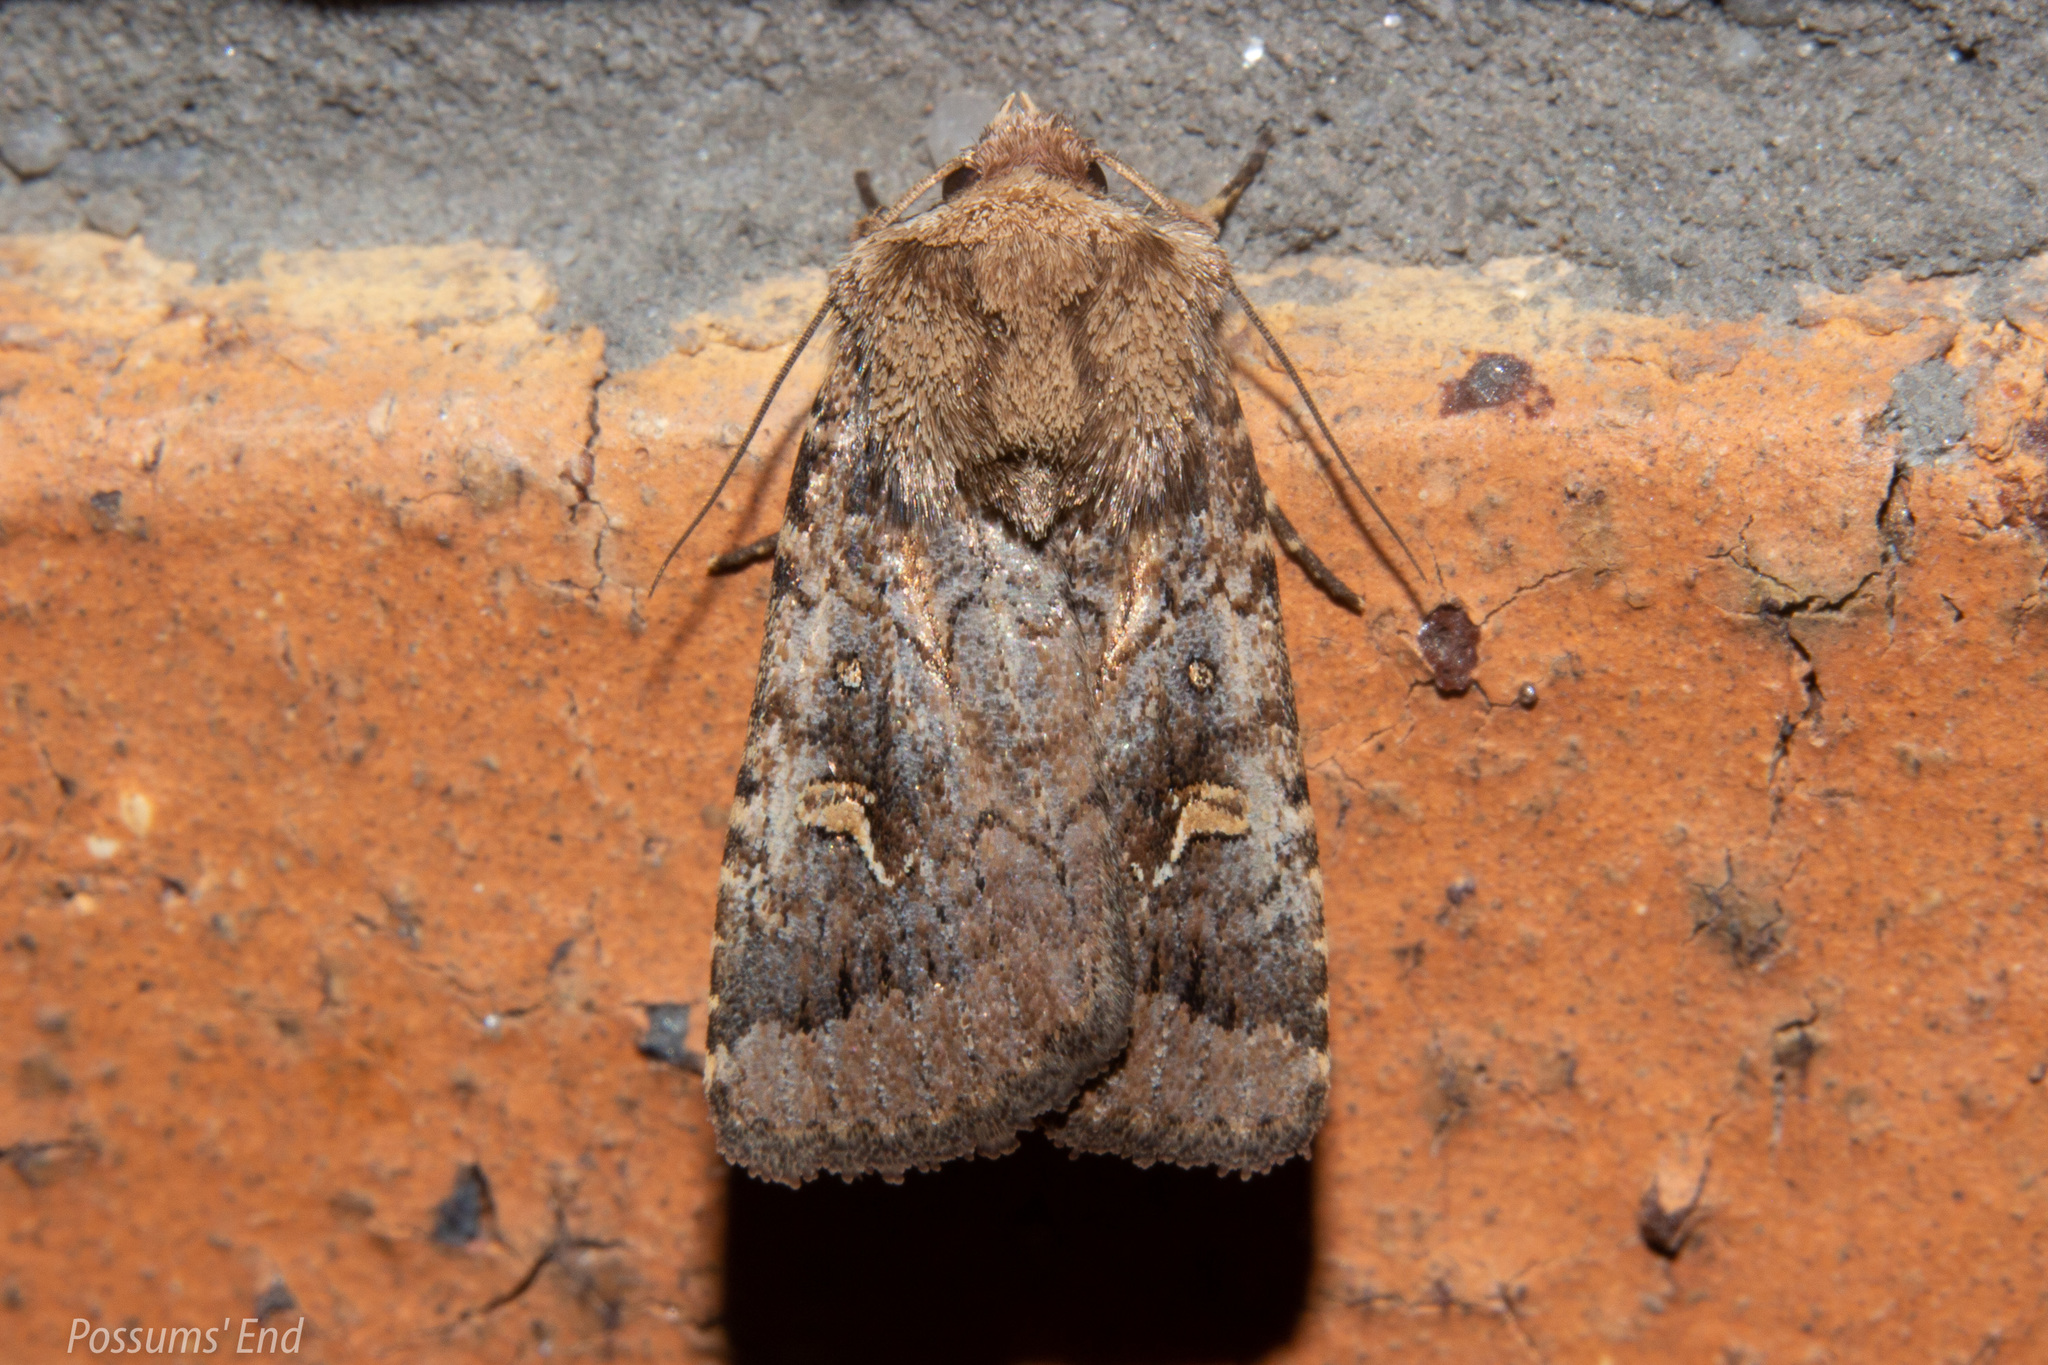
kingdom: Animalia
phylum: Arthropoda
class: Insecta
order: Lepidoptera
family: Noctuidae
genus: Proteuxoa
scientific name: Proteuxoa tetronycha
